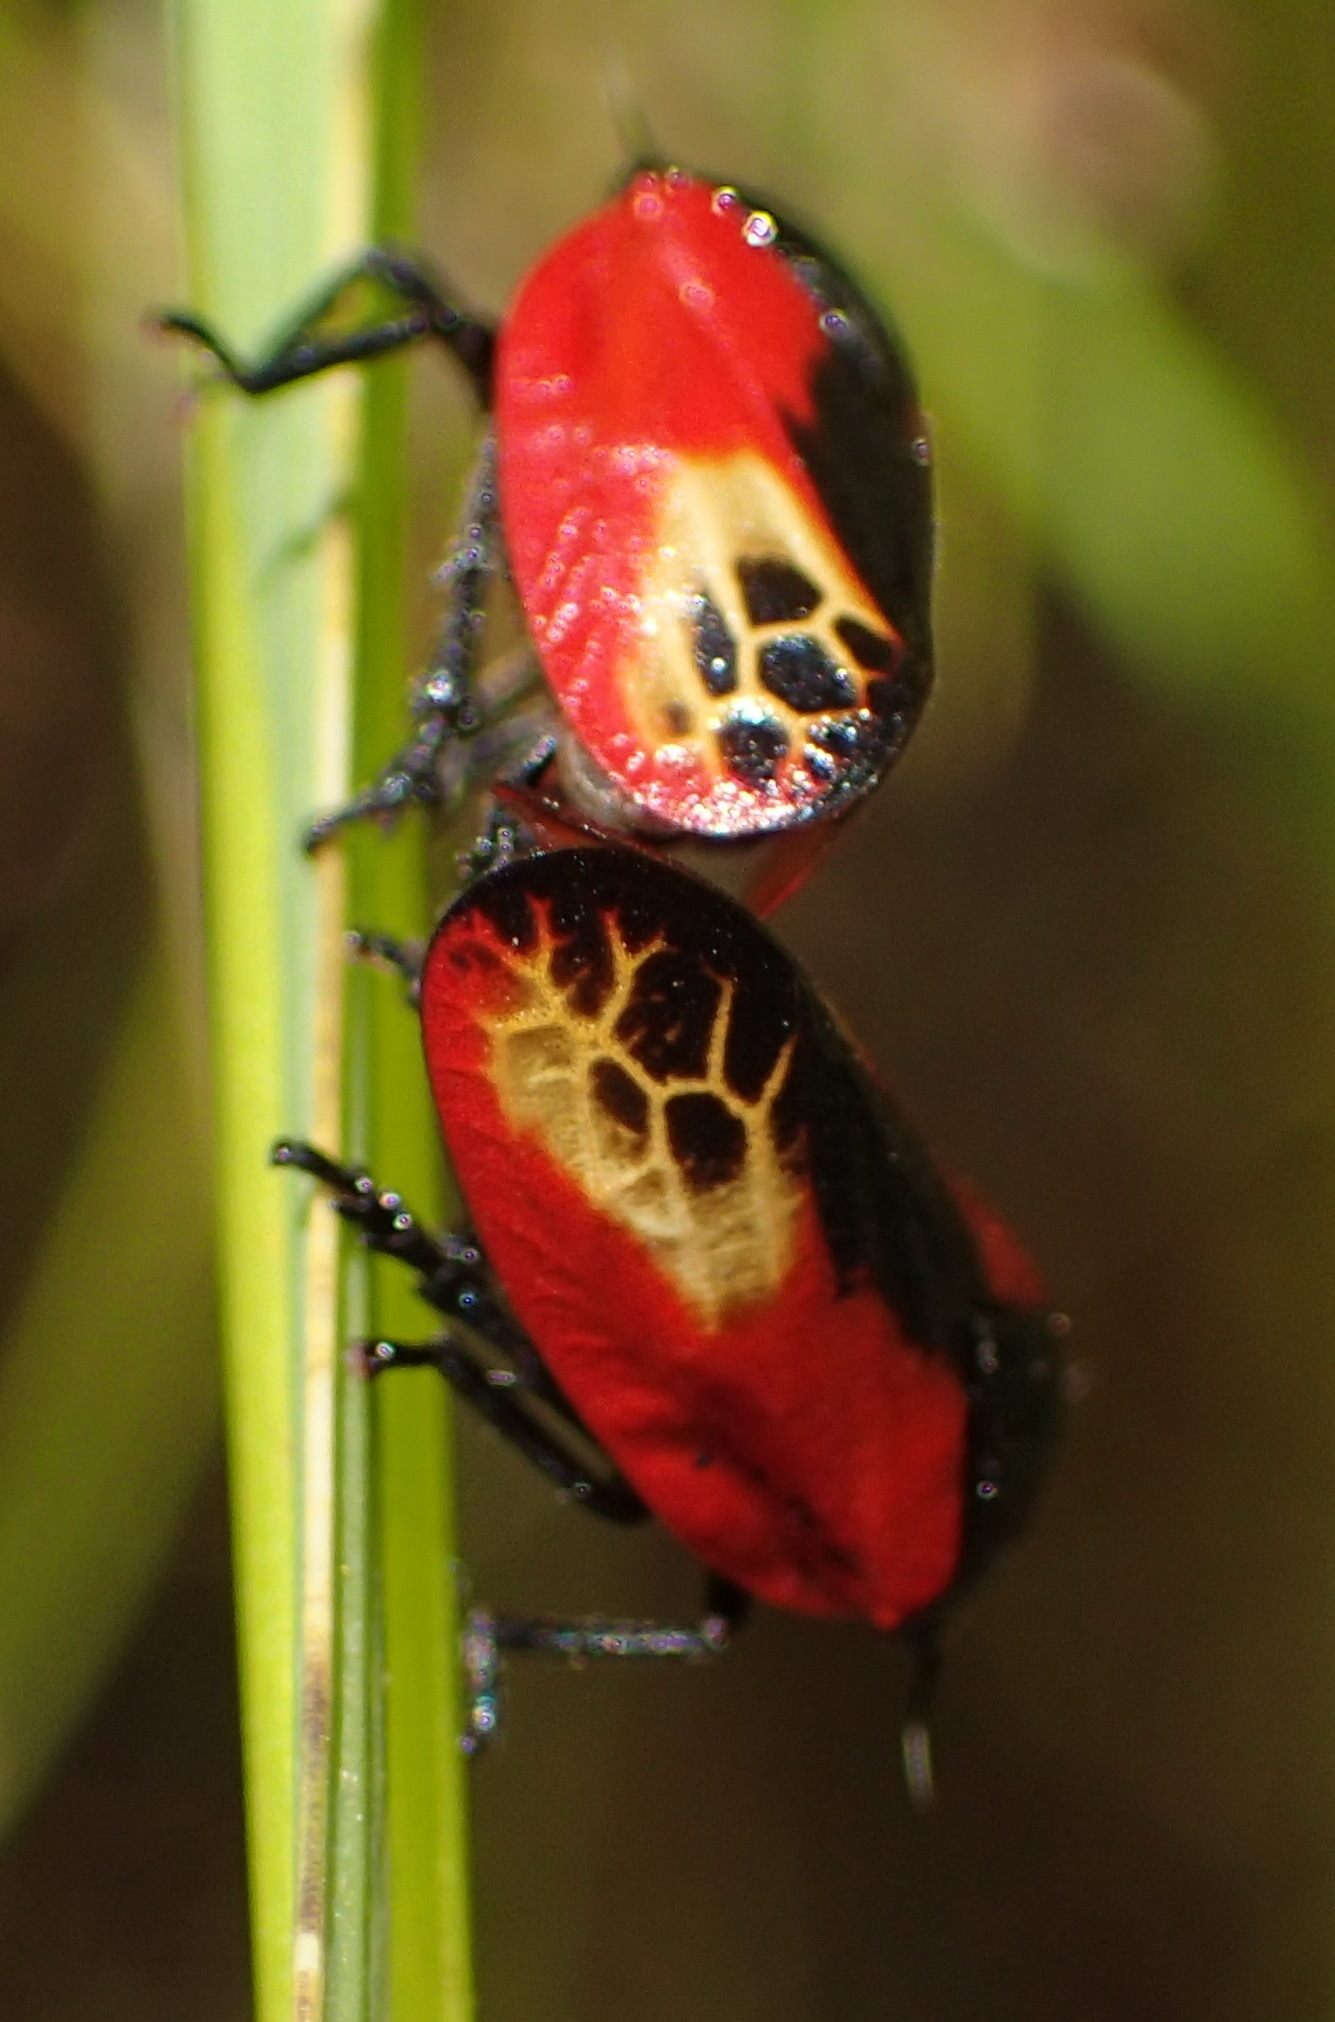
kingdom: Animalia
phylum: Arthropoda
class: Insecta
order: Hemiptera
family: Cercopidae
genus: Rhinaulax
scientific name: Rhinaulax analis
